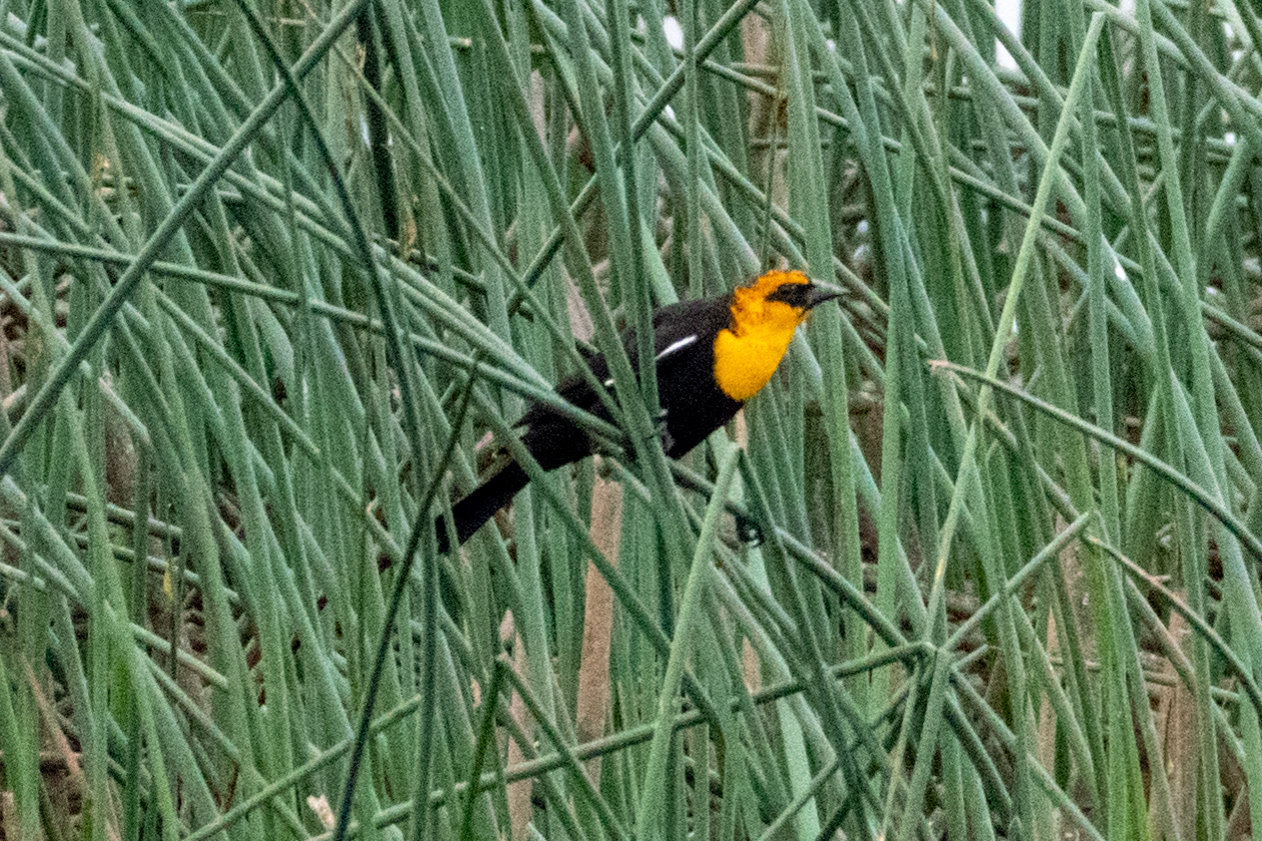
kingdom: Animalia
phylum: Chordata
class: Aves
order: Passeriformes
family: Icteridae
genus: Xanthocephalus
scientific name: Xanthocephalus xanthocephalus
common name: Yellow-headed blackbird
